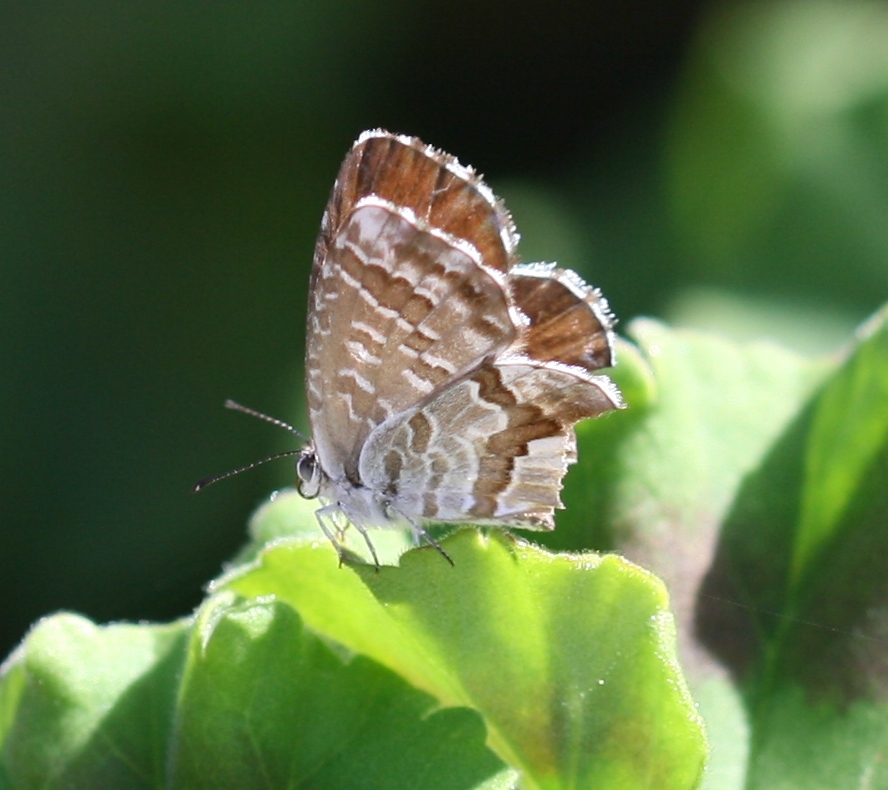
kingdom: Animalia
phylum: Arthropoda
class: Insecta
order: Lepidoptera
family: Lycaenidae
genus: Cacyreus
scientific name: Cacyreus marshalli
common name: Geranium bronze
